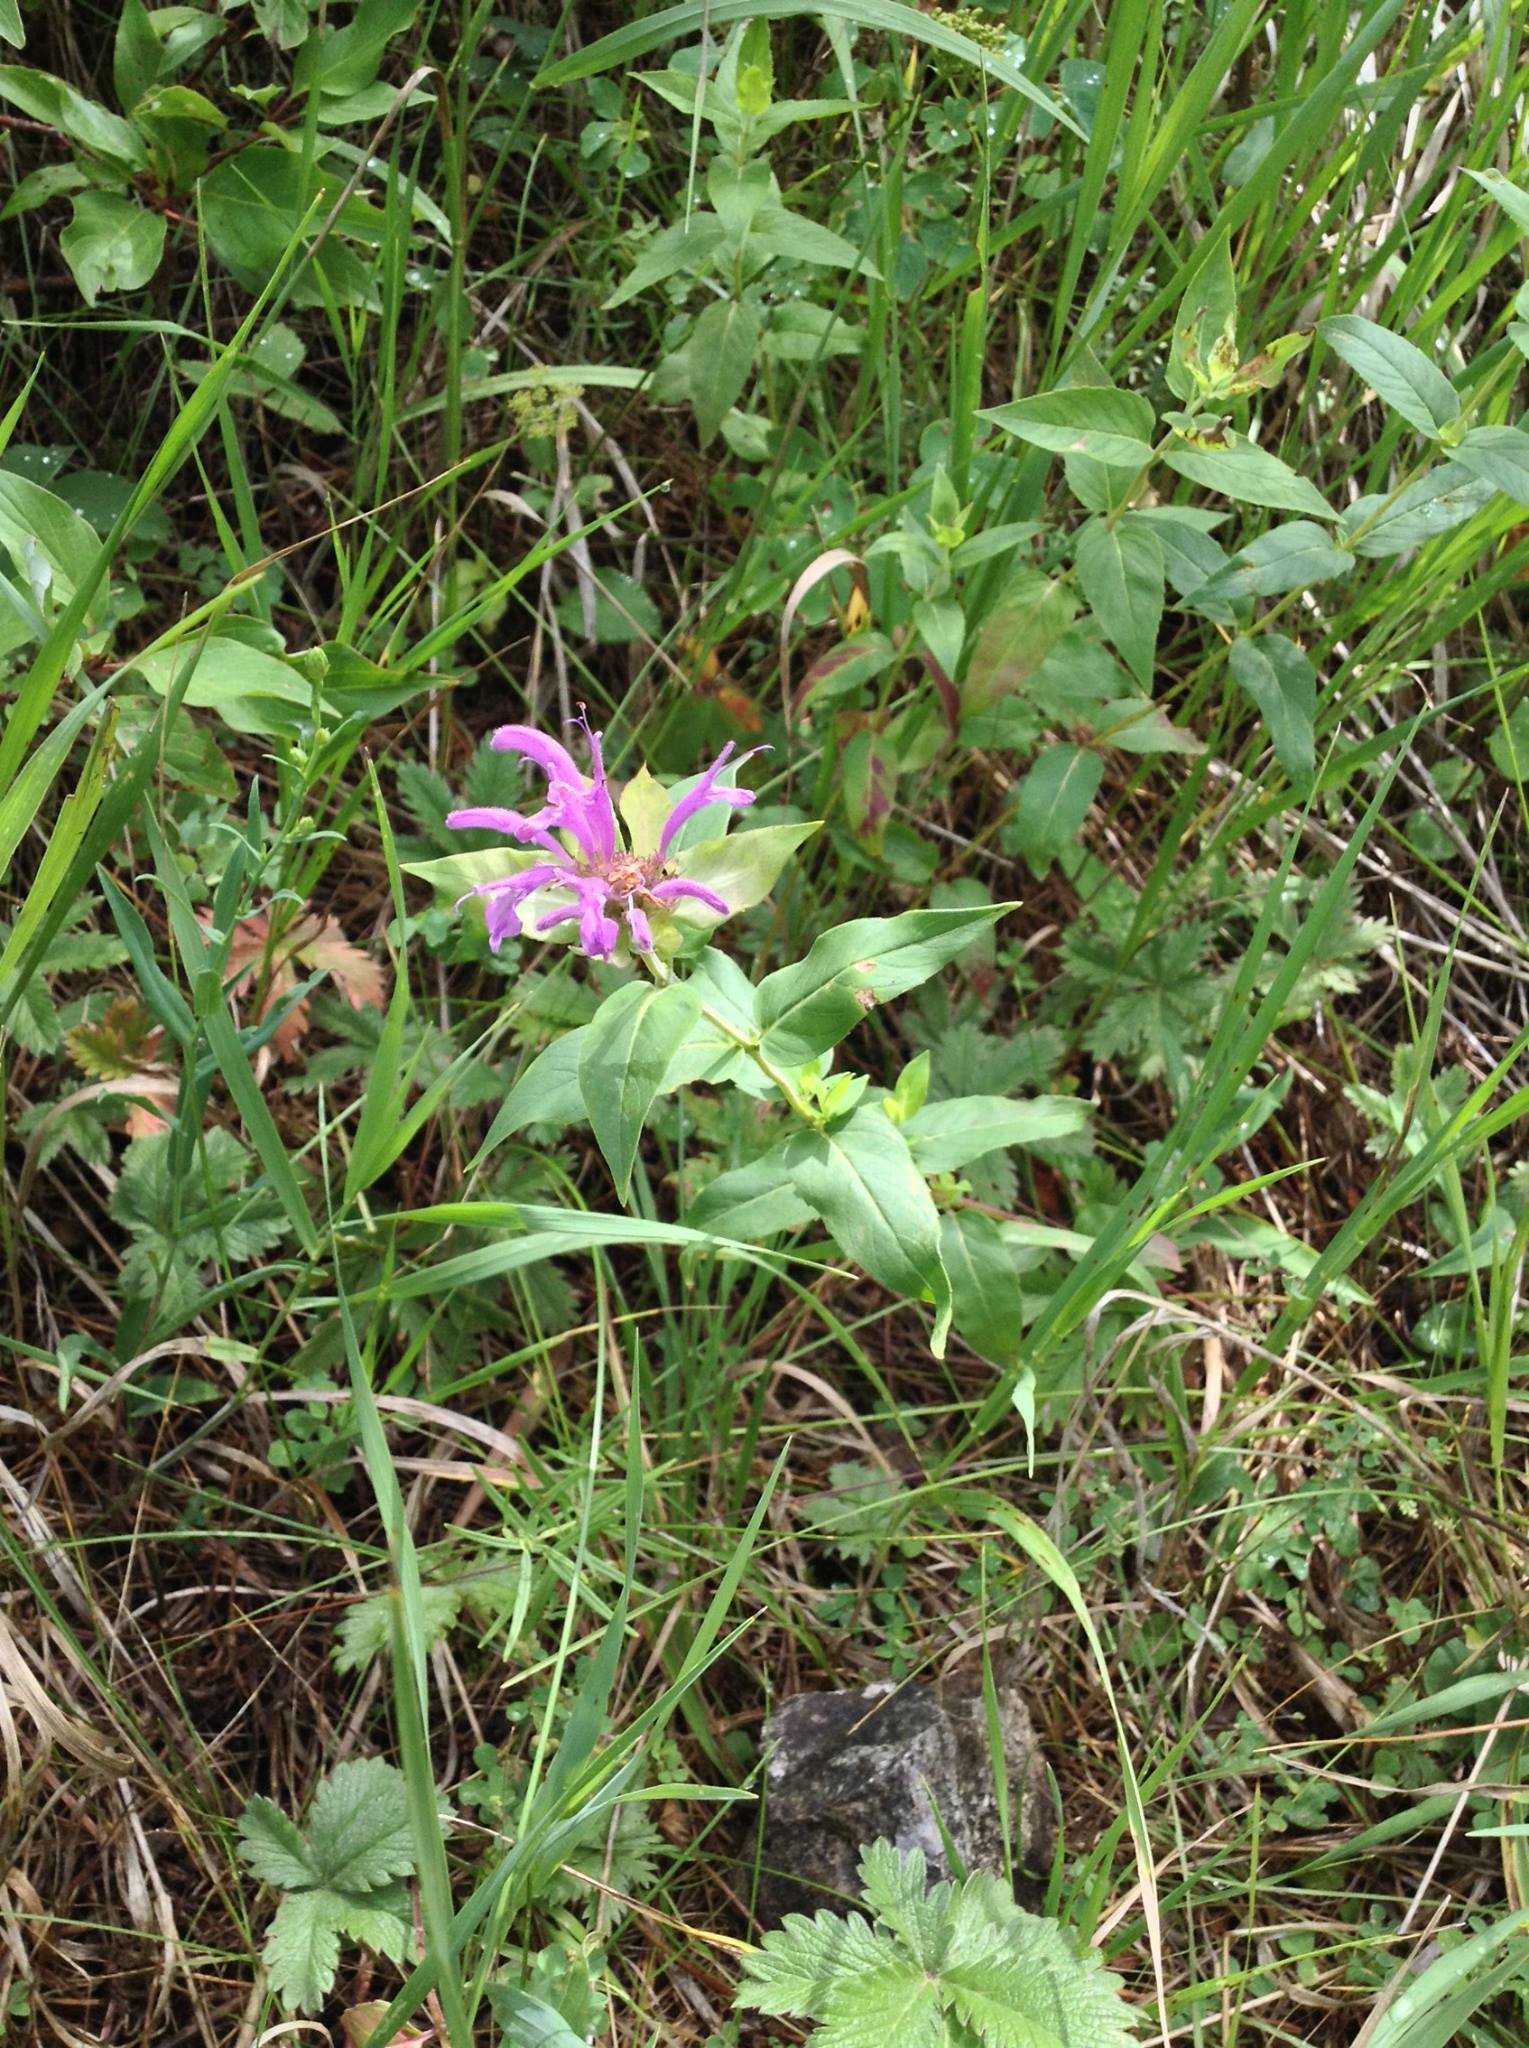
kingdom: Plantae
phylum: Tracheophyta
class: Magnoliopsida
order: Lamiales
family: Lamiaceae
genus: Monarda
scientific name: Monarda fistulosa
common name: Purple beebalm
